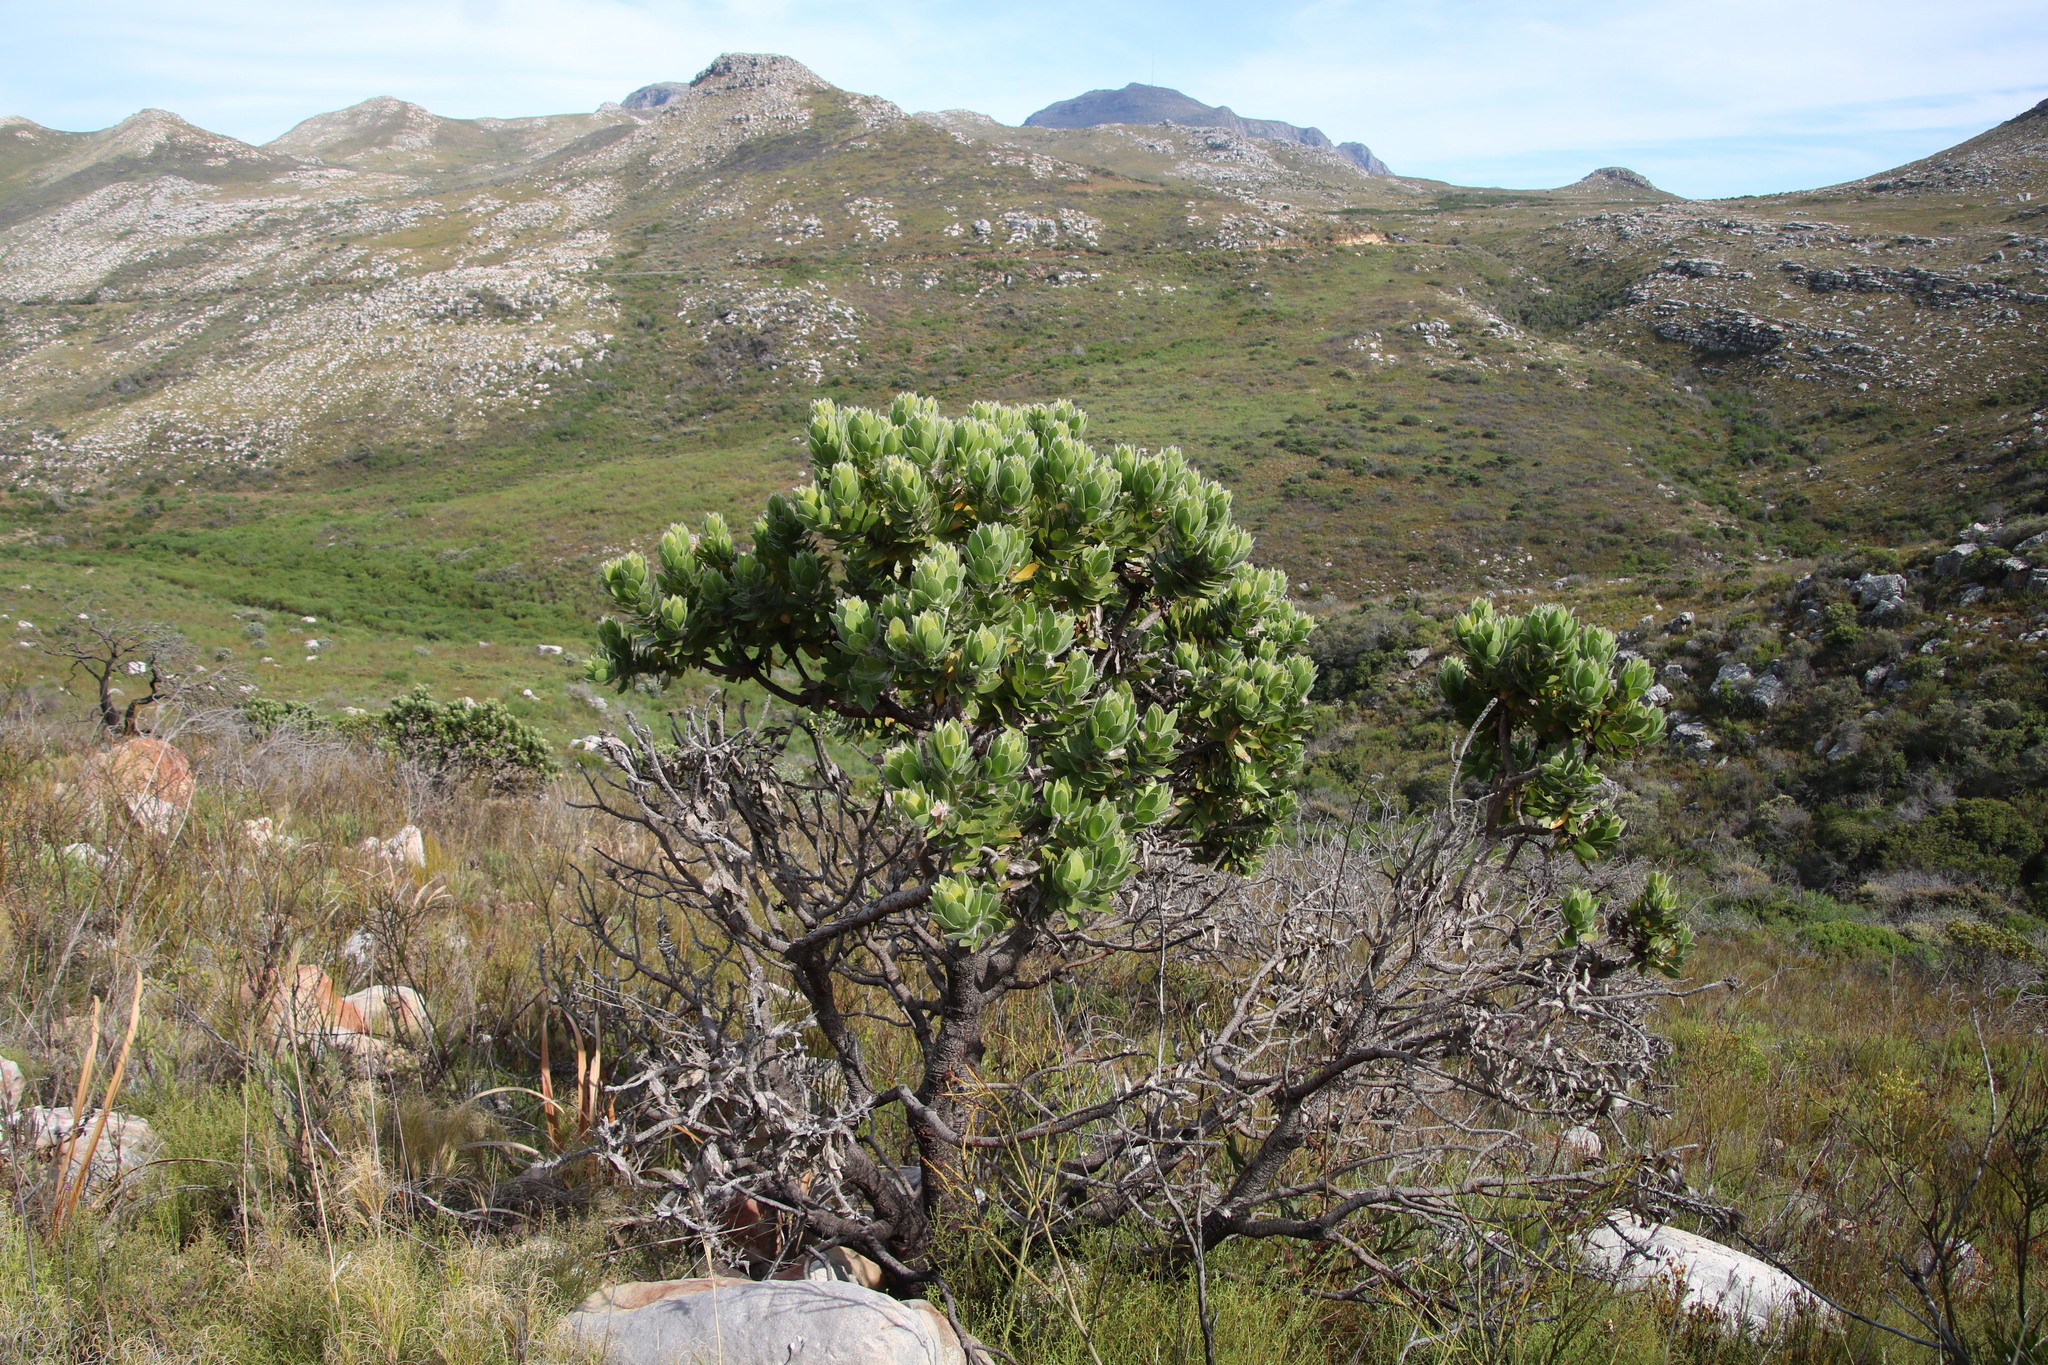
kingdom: Plantae
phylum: Tracheophyta
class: Magnoliopsida
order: Proteales
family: Proteaceae
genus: Leucospermum
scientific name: Leucospermum conocarpodendron
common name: Tree pincushion
